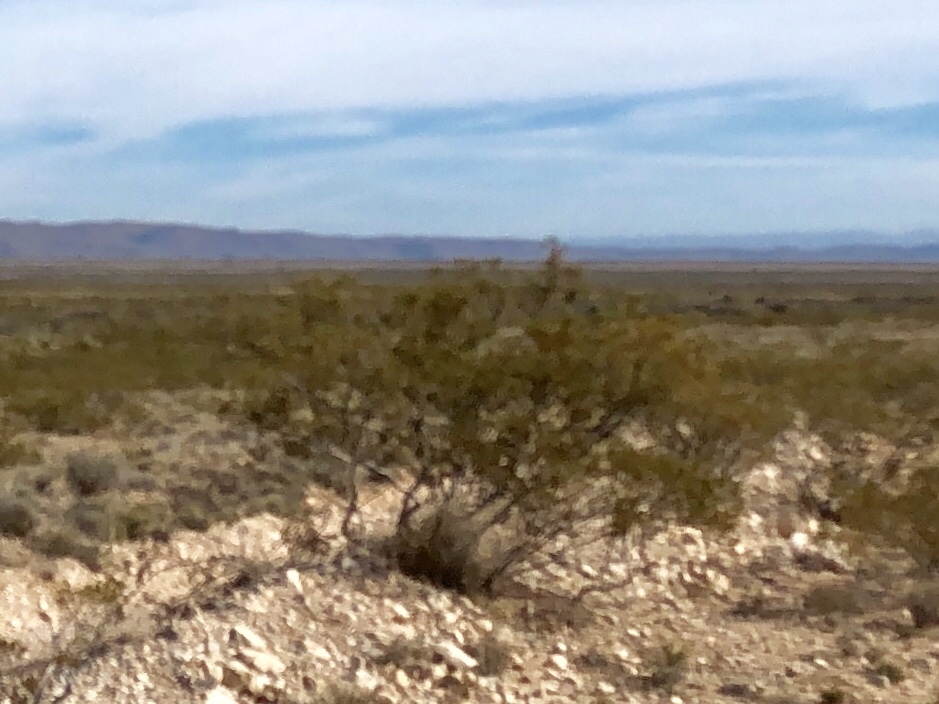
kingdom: Plantae
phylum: Tracheophyta
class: Magnoliopsida
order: Zygophyllales
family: Zygophyllaceae
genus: Larrea
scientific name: Larrea tridentata
